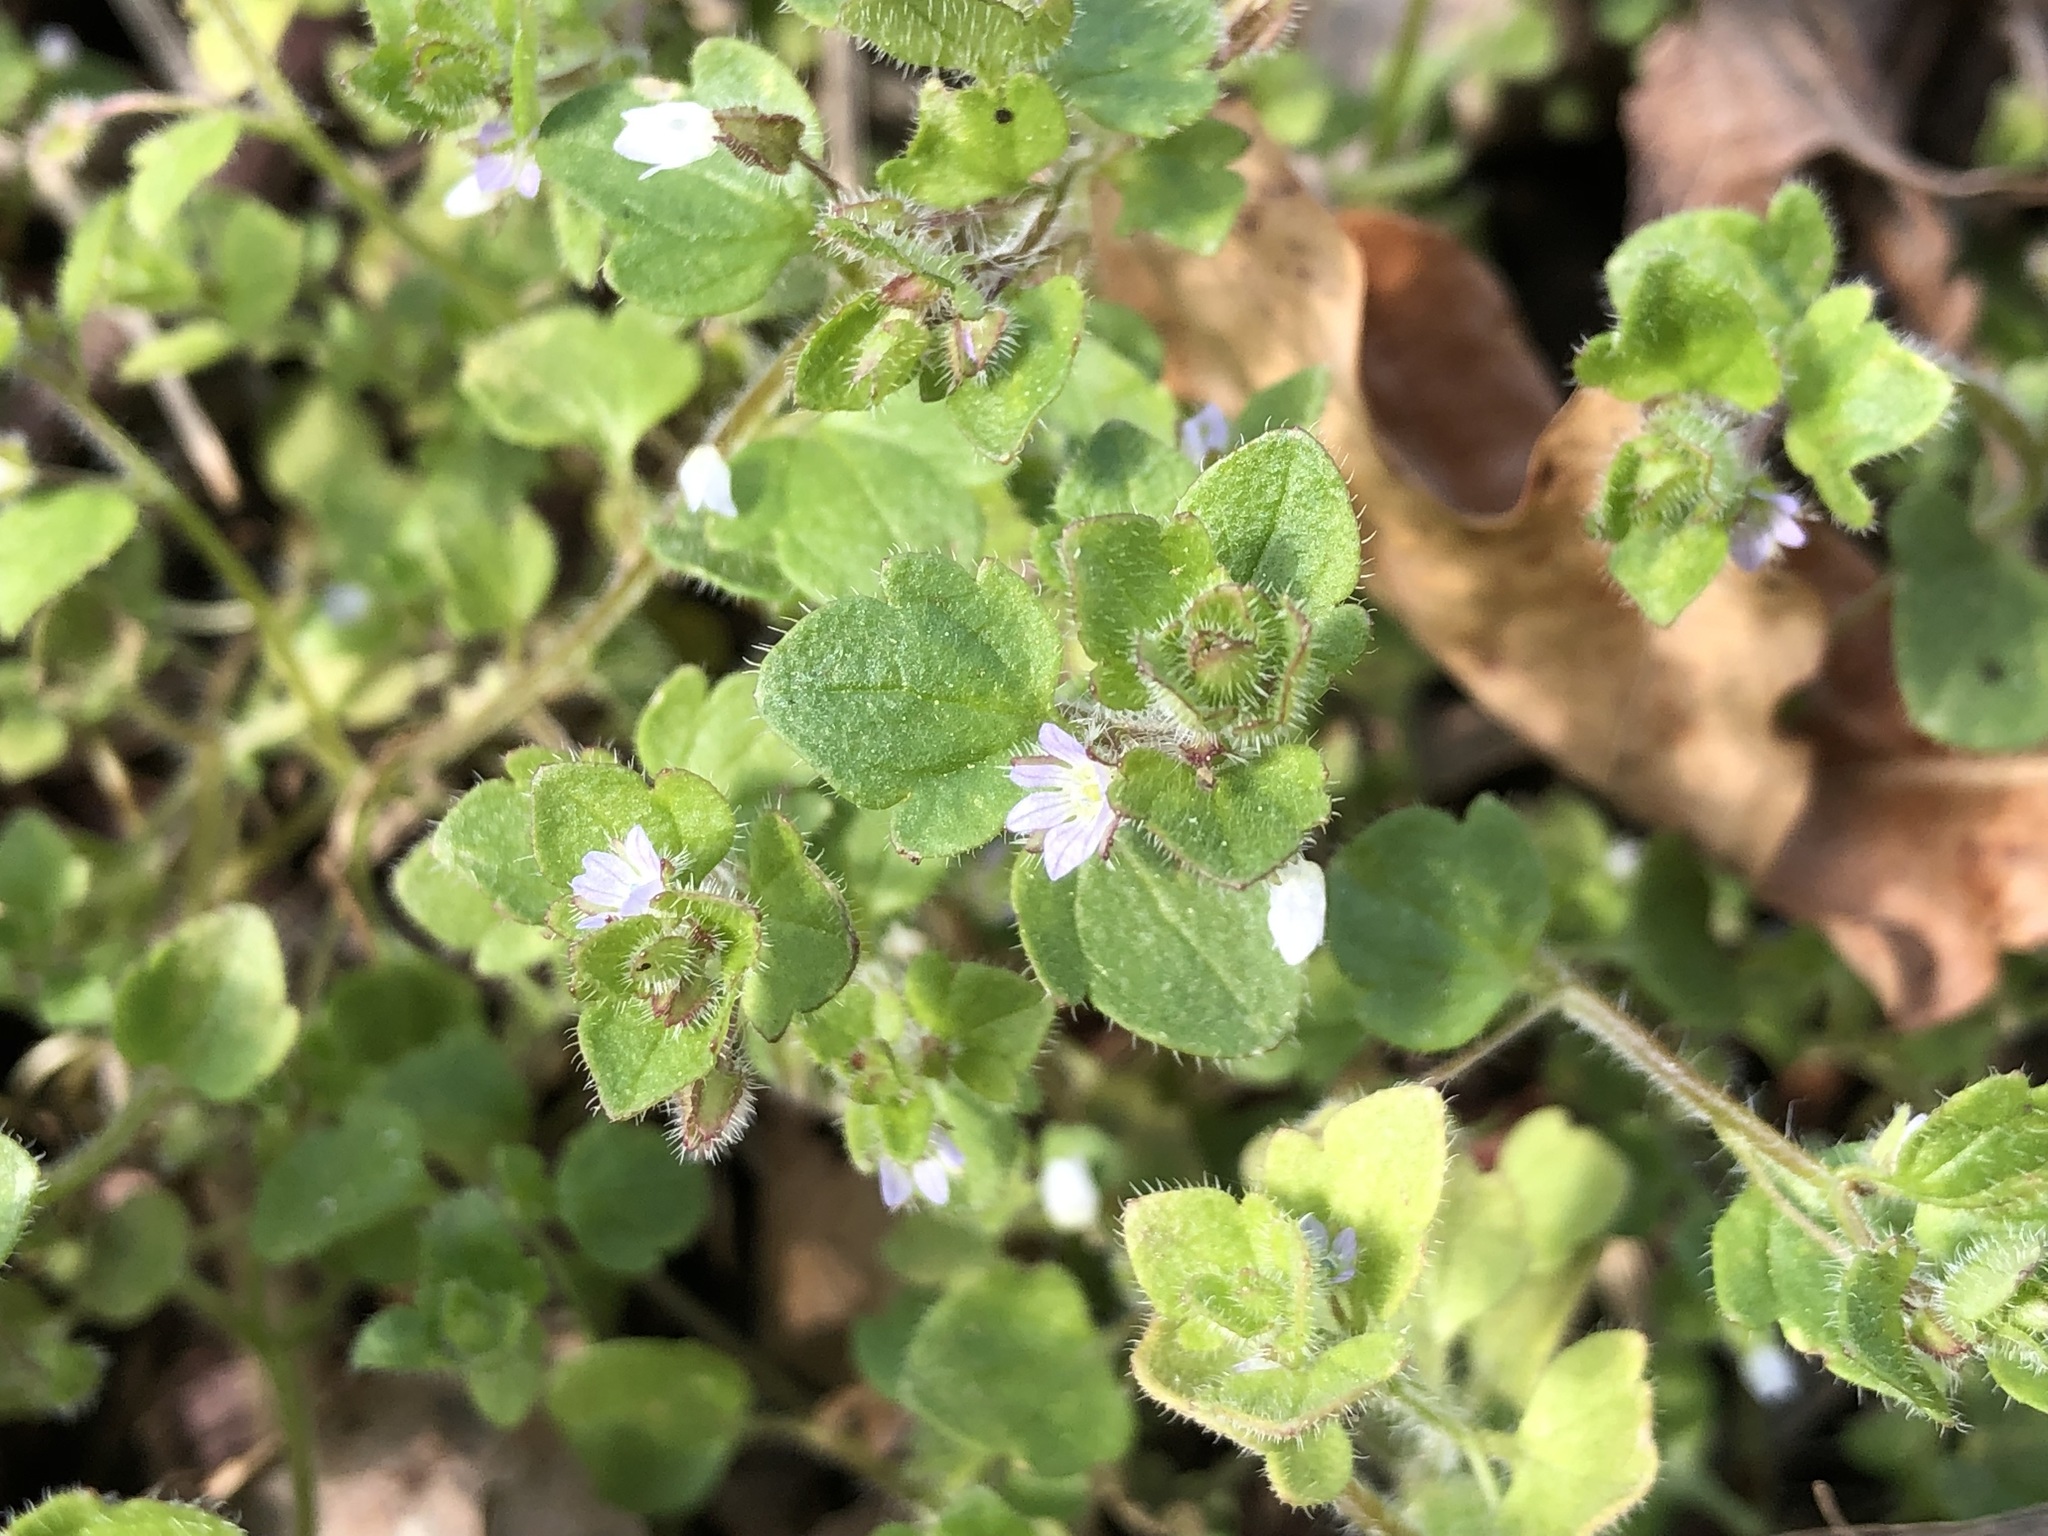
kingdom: Plantae
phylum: Tracheophyta
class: Magnoliopsida
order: Lamiales
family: Plantaginaceae
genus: Veronica
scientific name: Veronica sublobata
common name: False ivy-leaved speedwell
